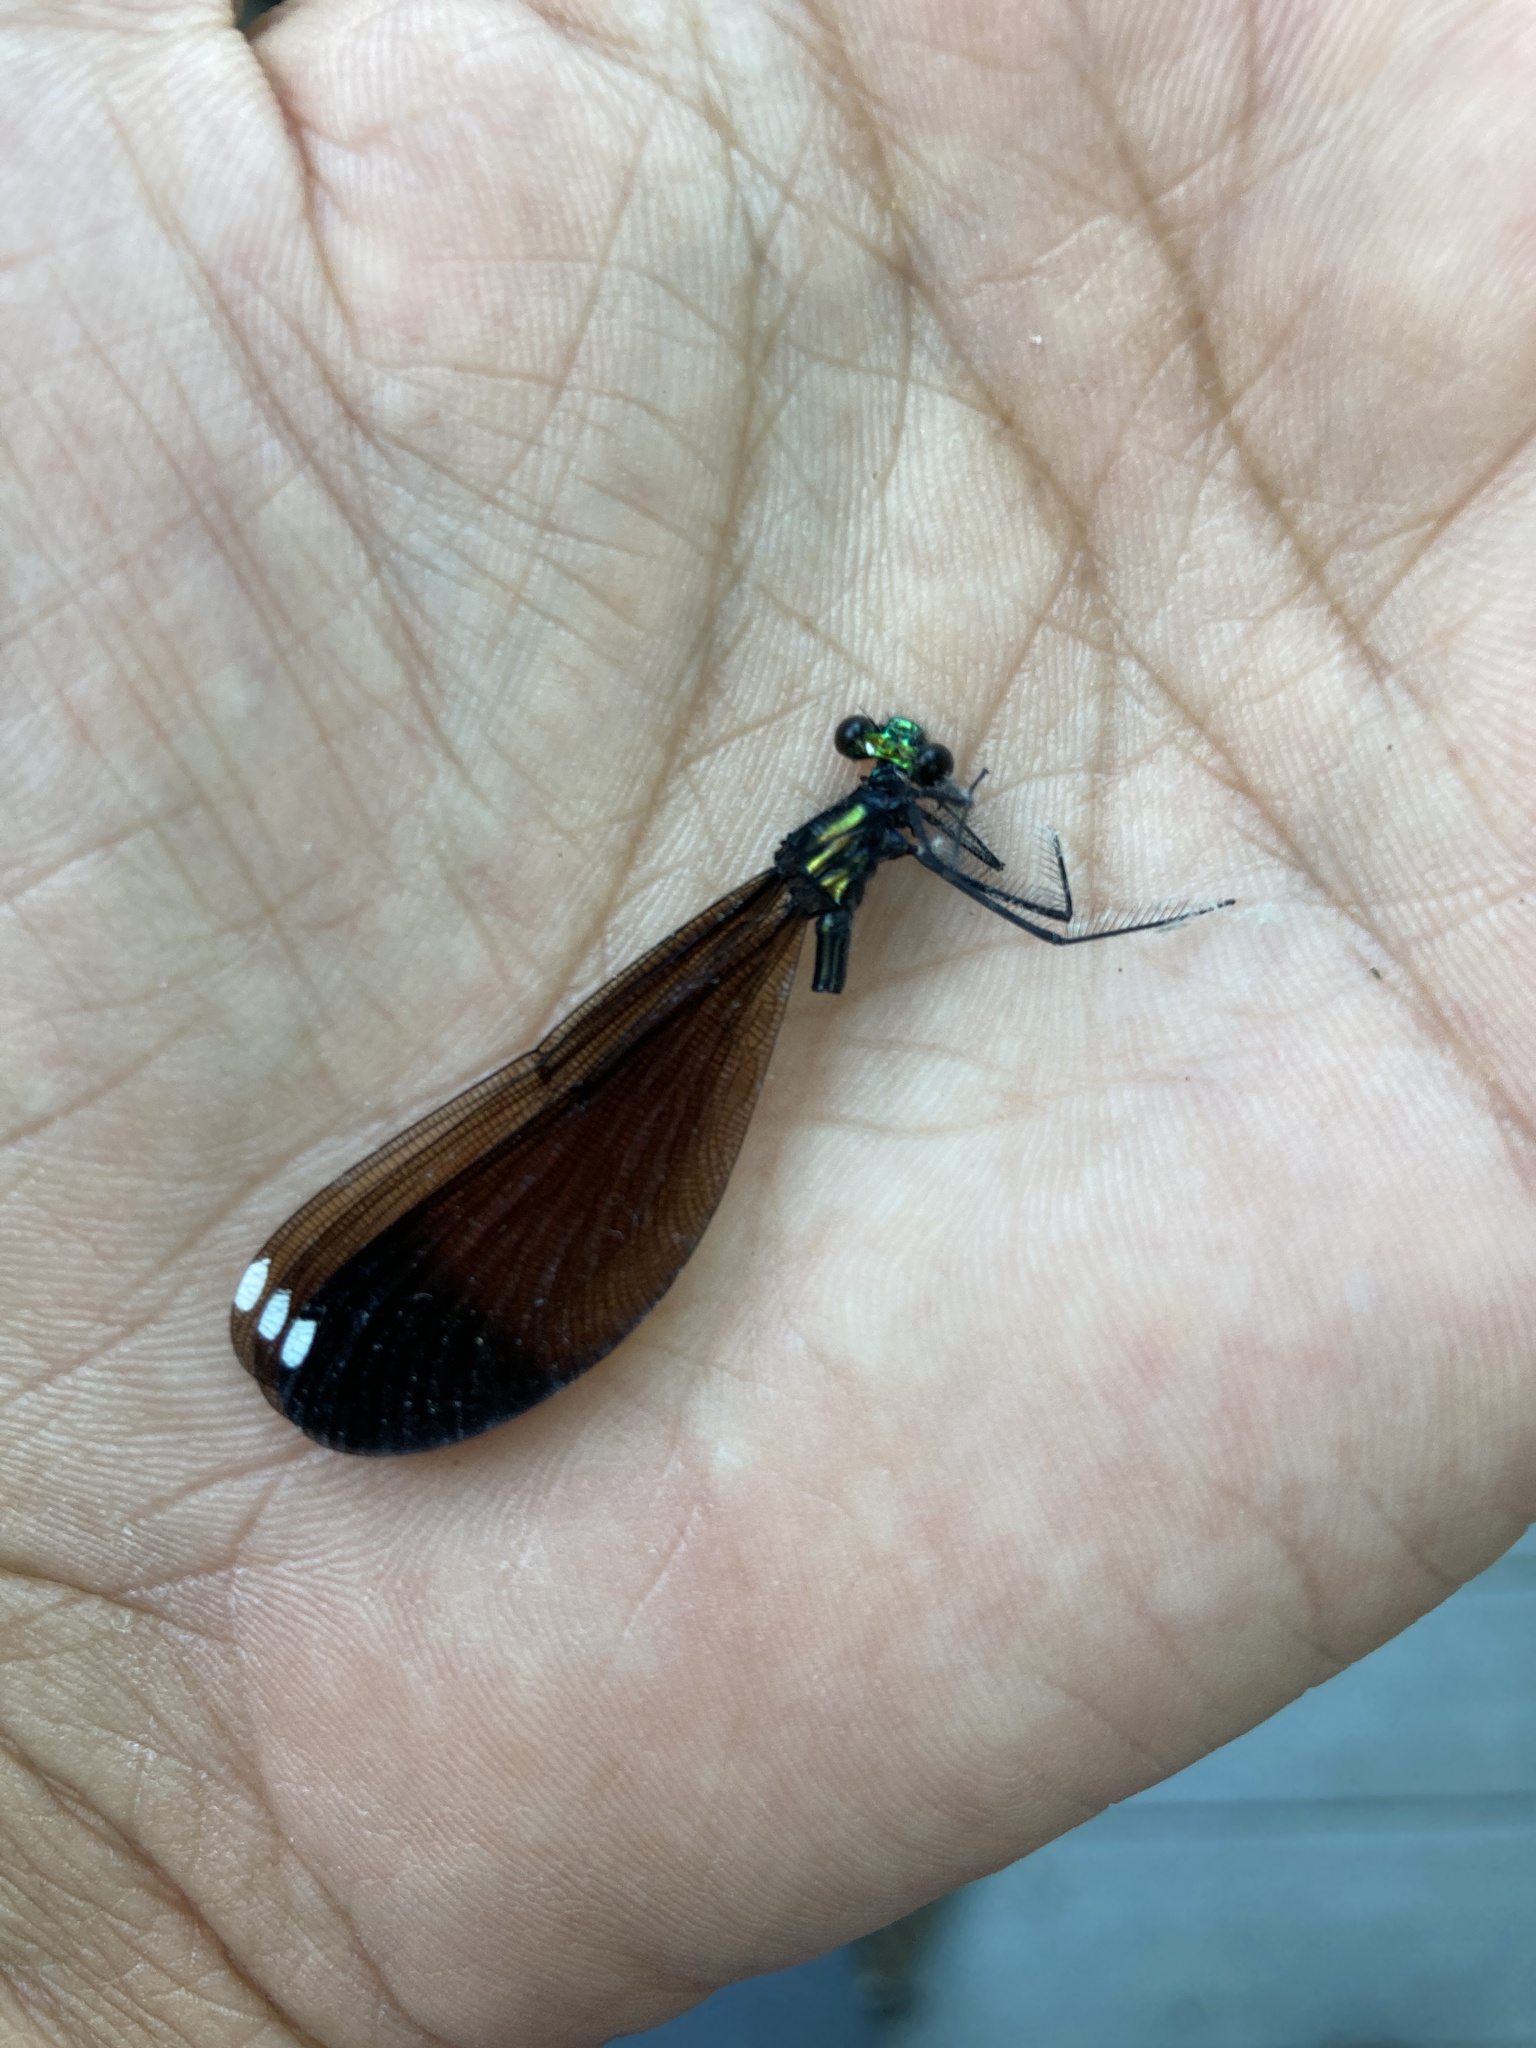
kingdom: Animalia
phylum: Arthropoda
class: Insecta
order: Odonata
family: Calopterygidae
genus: Calopteryx
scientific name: Calopteryx maculata
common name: Ebony jewelwing
